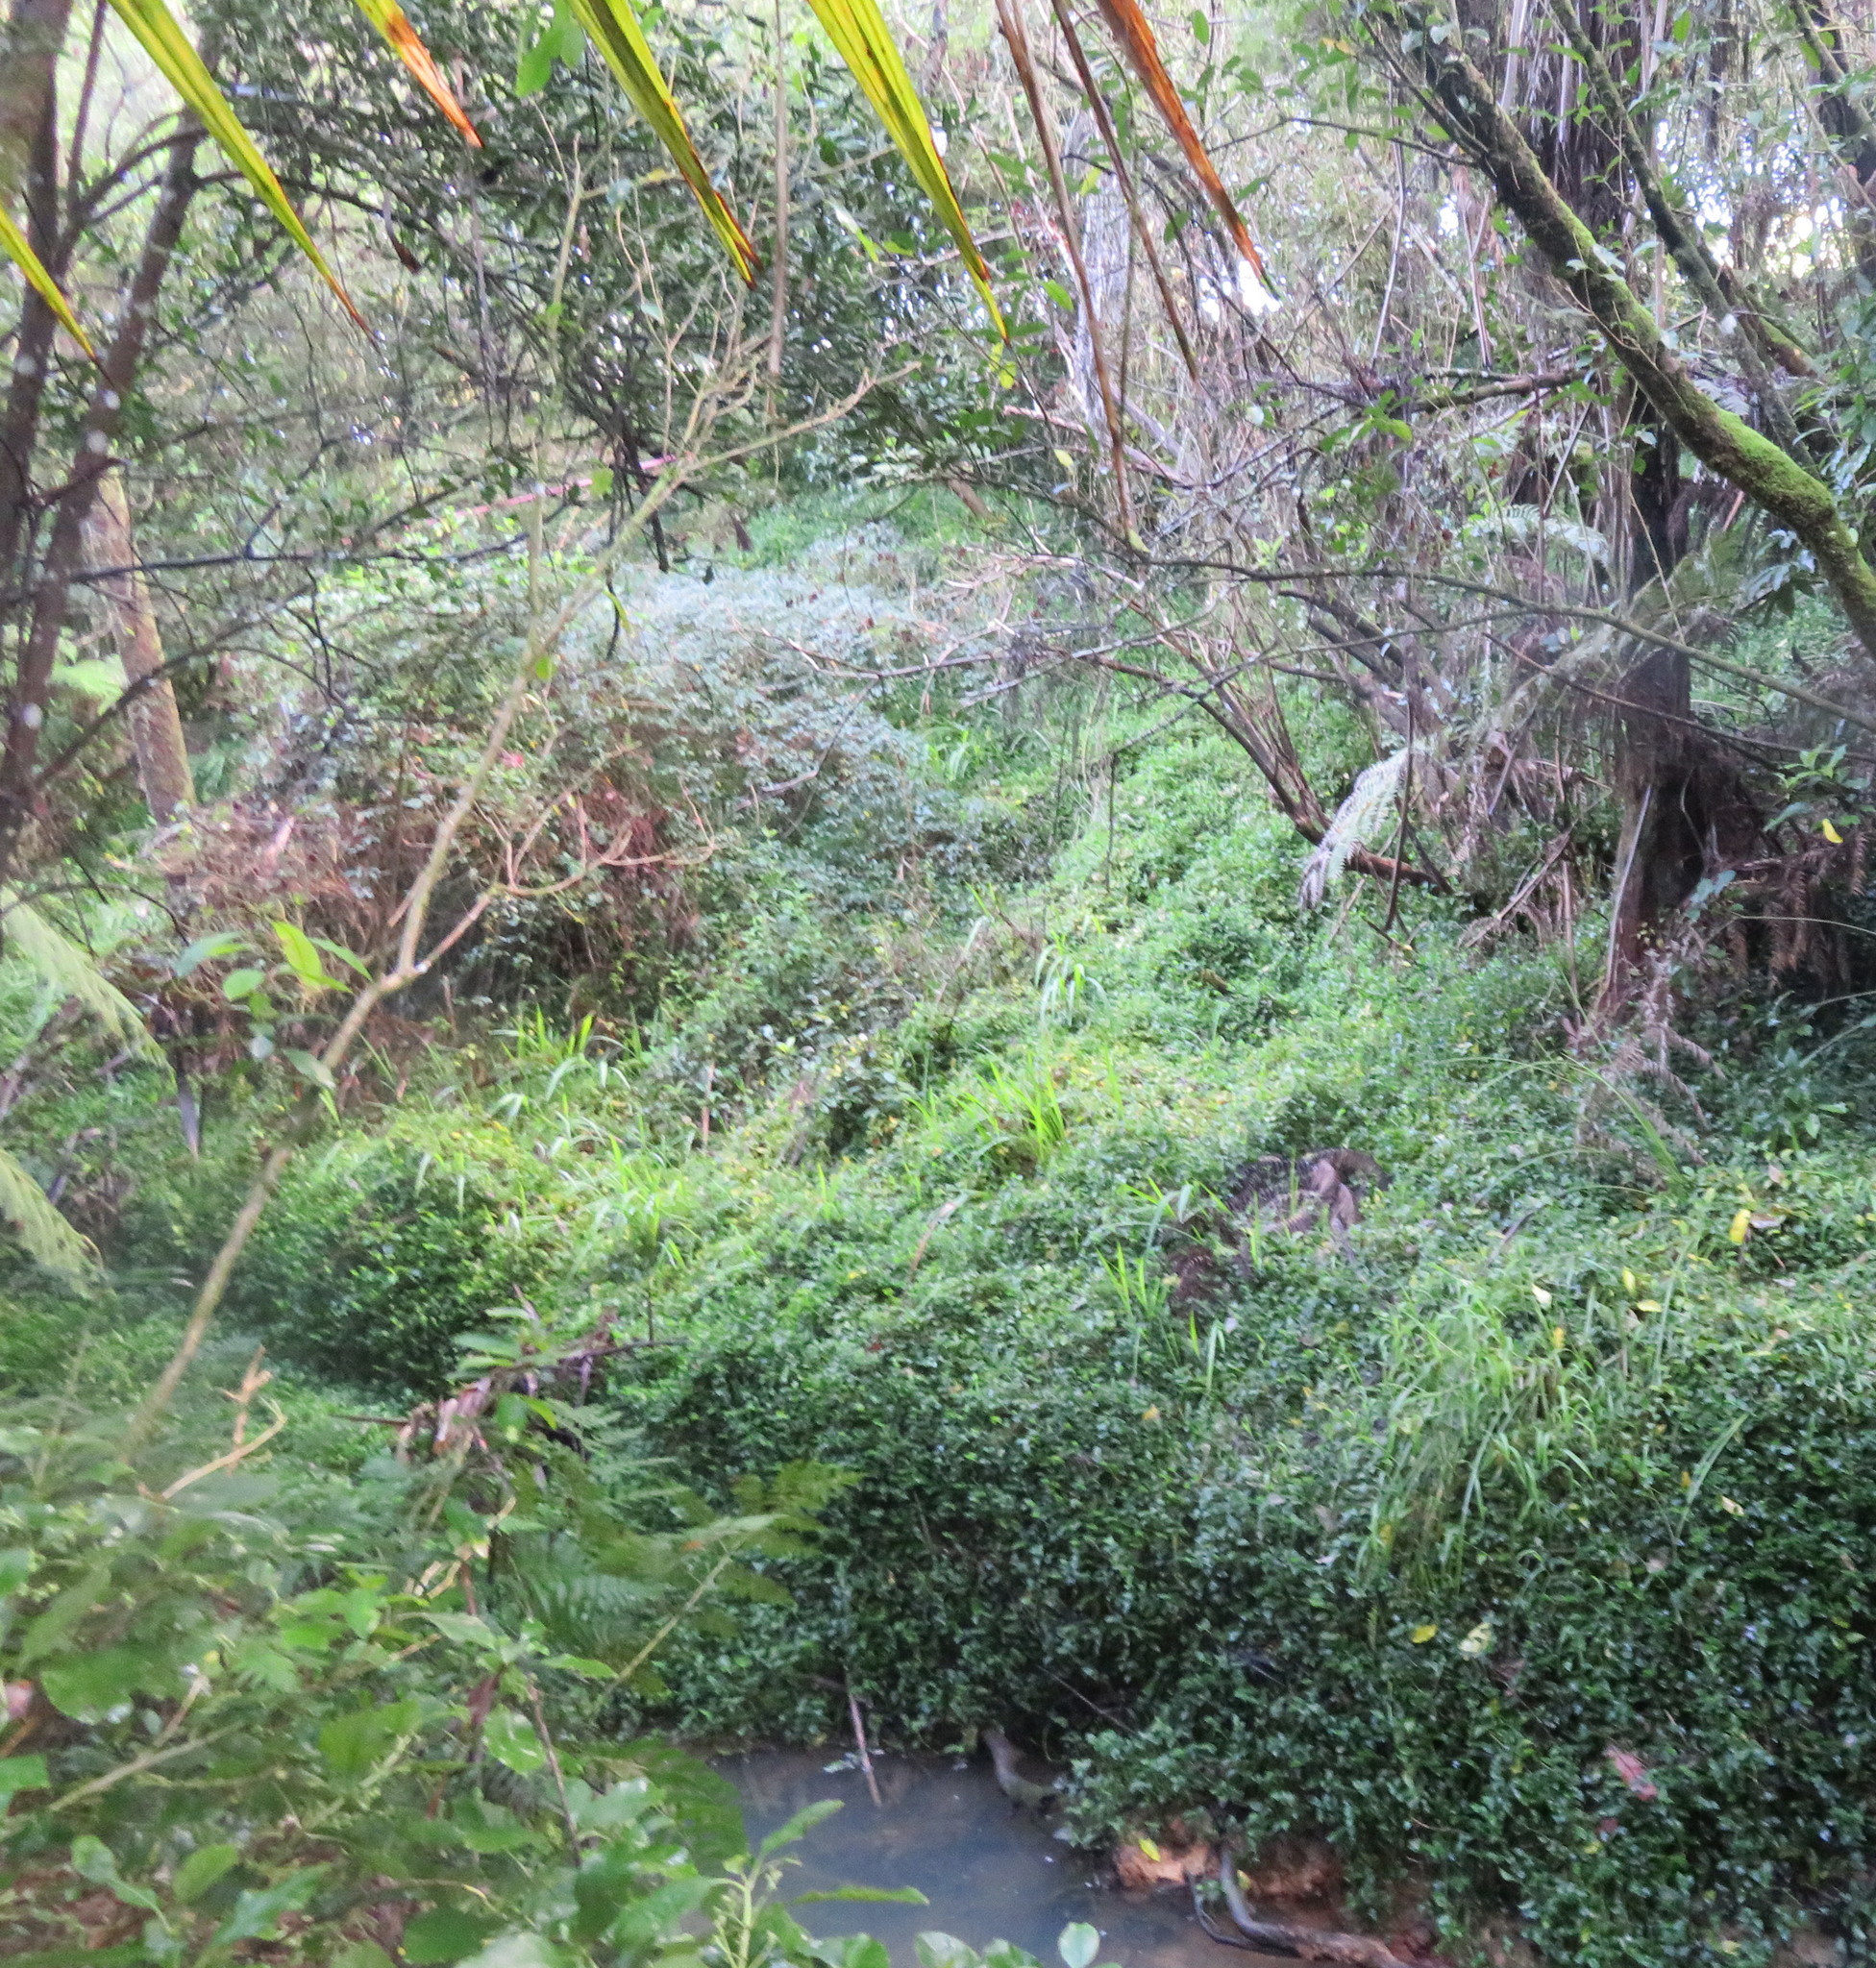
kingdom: Plantae
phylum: Tracheophyta
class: Liliopsida
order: Commelinales
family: Commelinaceae
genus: Tradescantia
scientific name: Tradescantia fluminensis
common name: Wandering-jew
